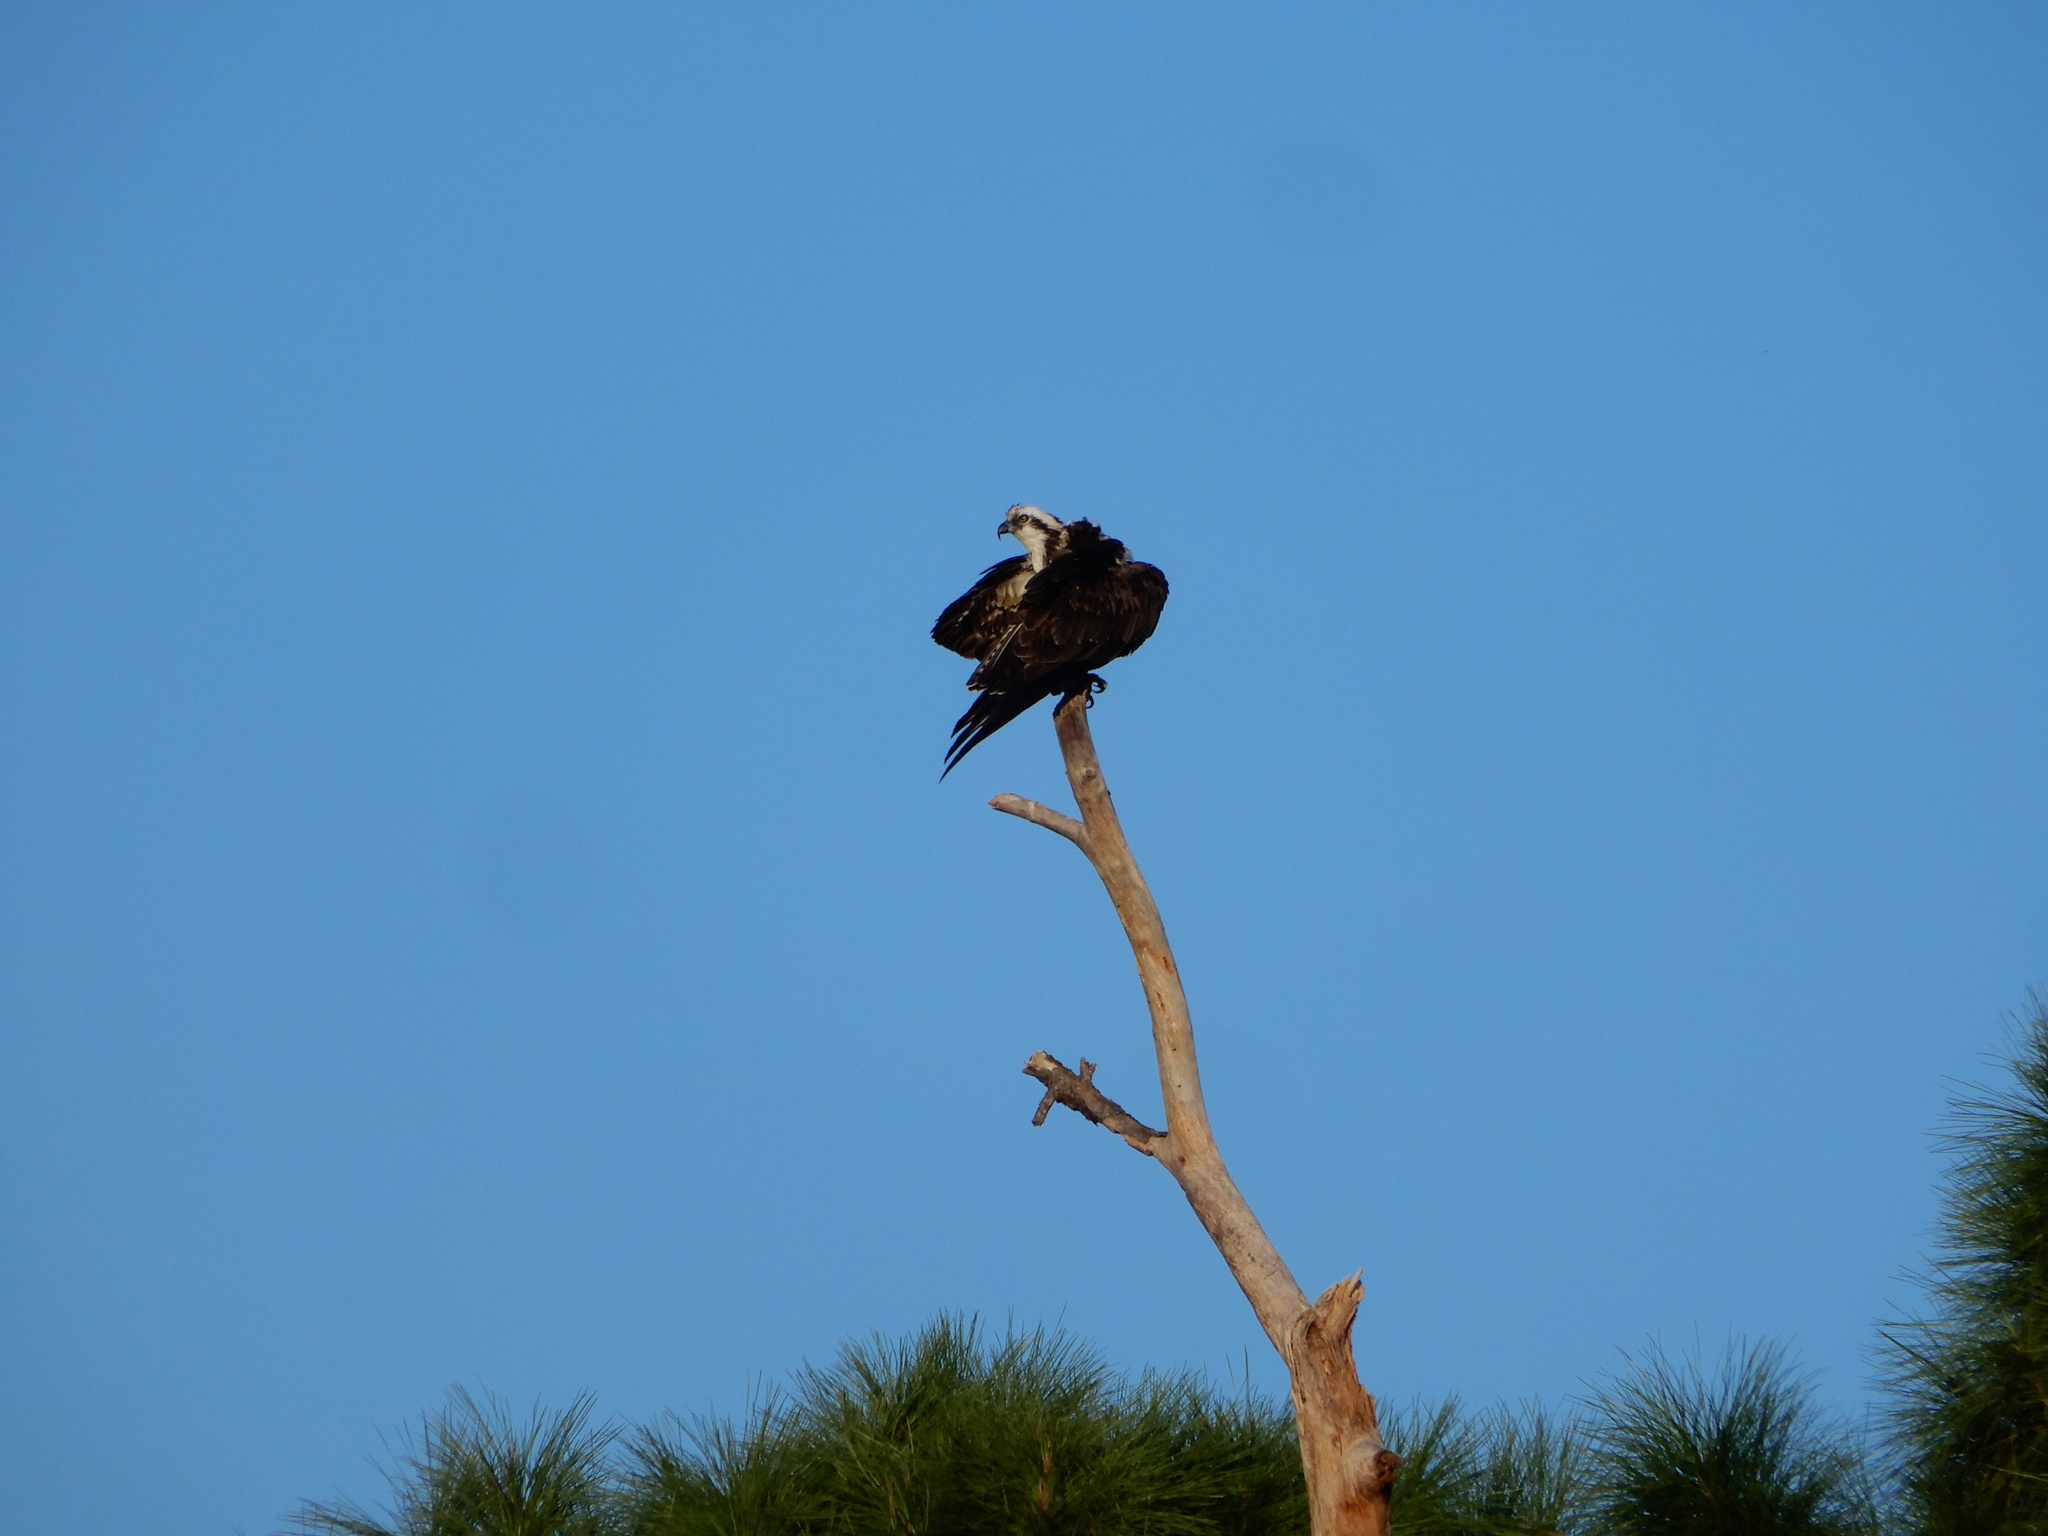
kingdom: Animalia
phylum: Chordata
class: Aves
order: Accipitriformes
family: Pandionidae
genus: Pandion
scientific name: Pandion haliaetus
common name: Osprey
